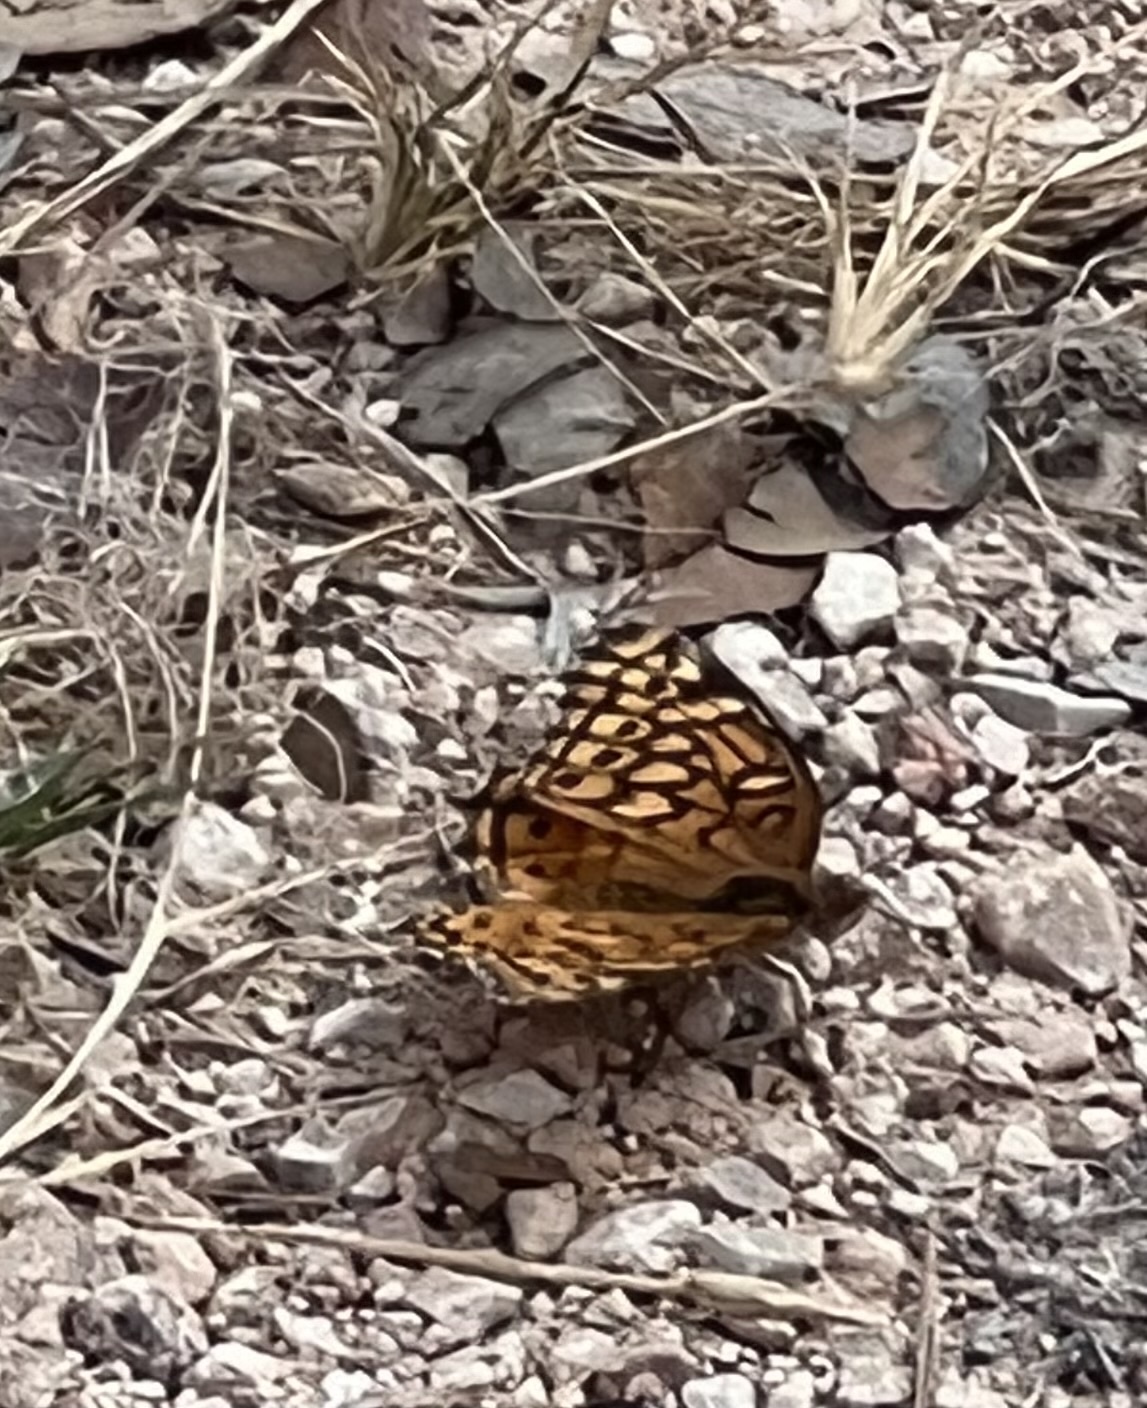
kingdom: Animalia
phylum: Arthropoda
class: Insecta
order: Lepidoptera
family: Nymphalidae
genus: Euptoieta
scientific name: Euptoieta claudia
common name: Variegated fritillary
